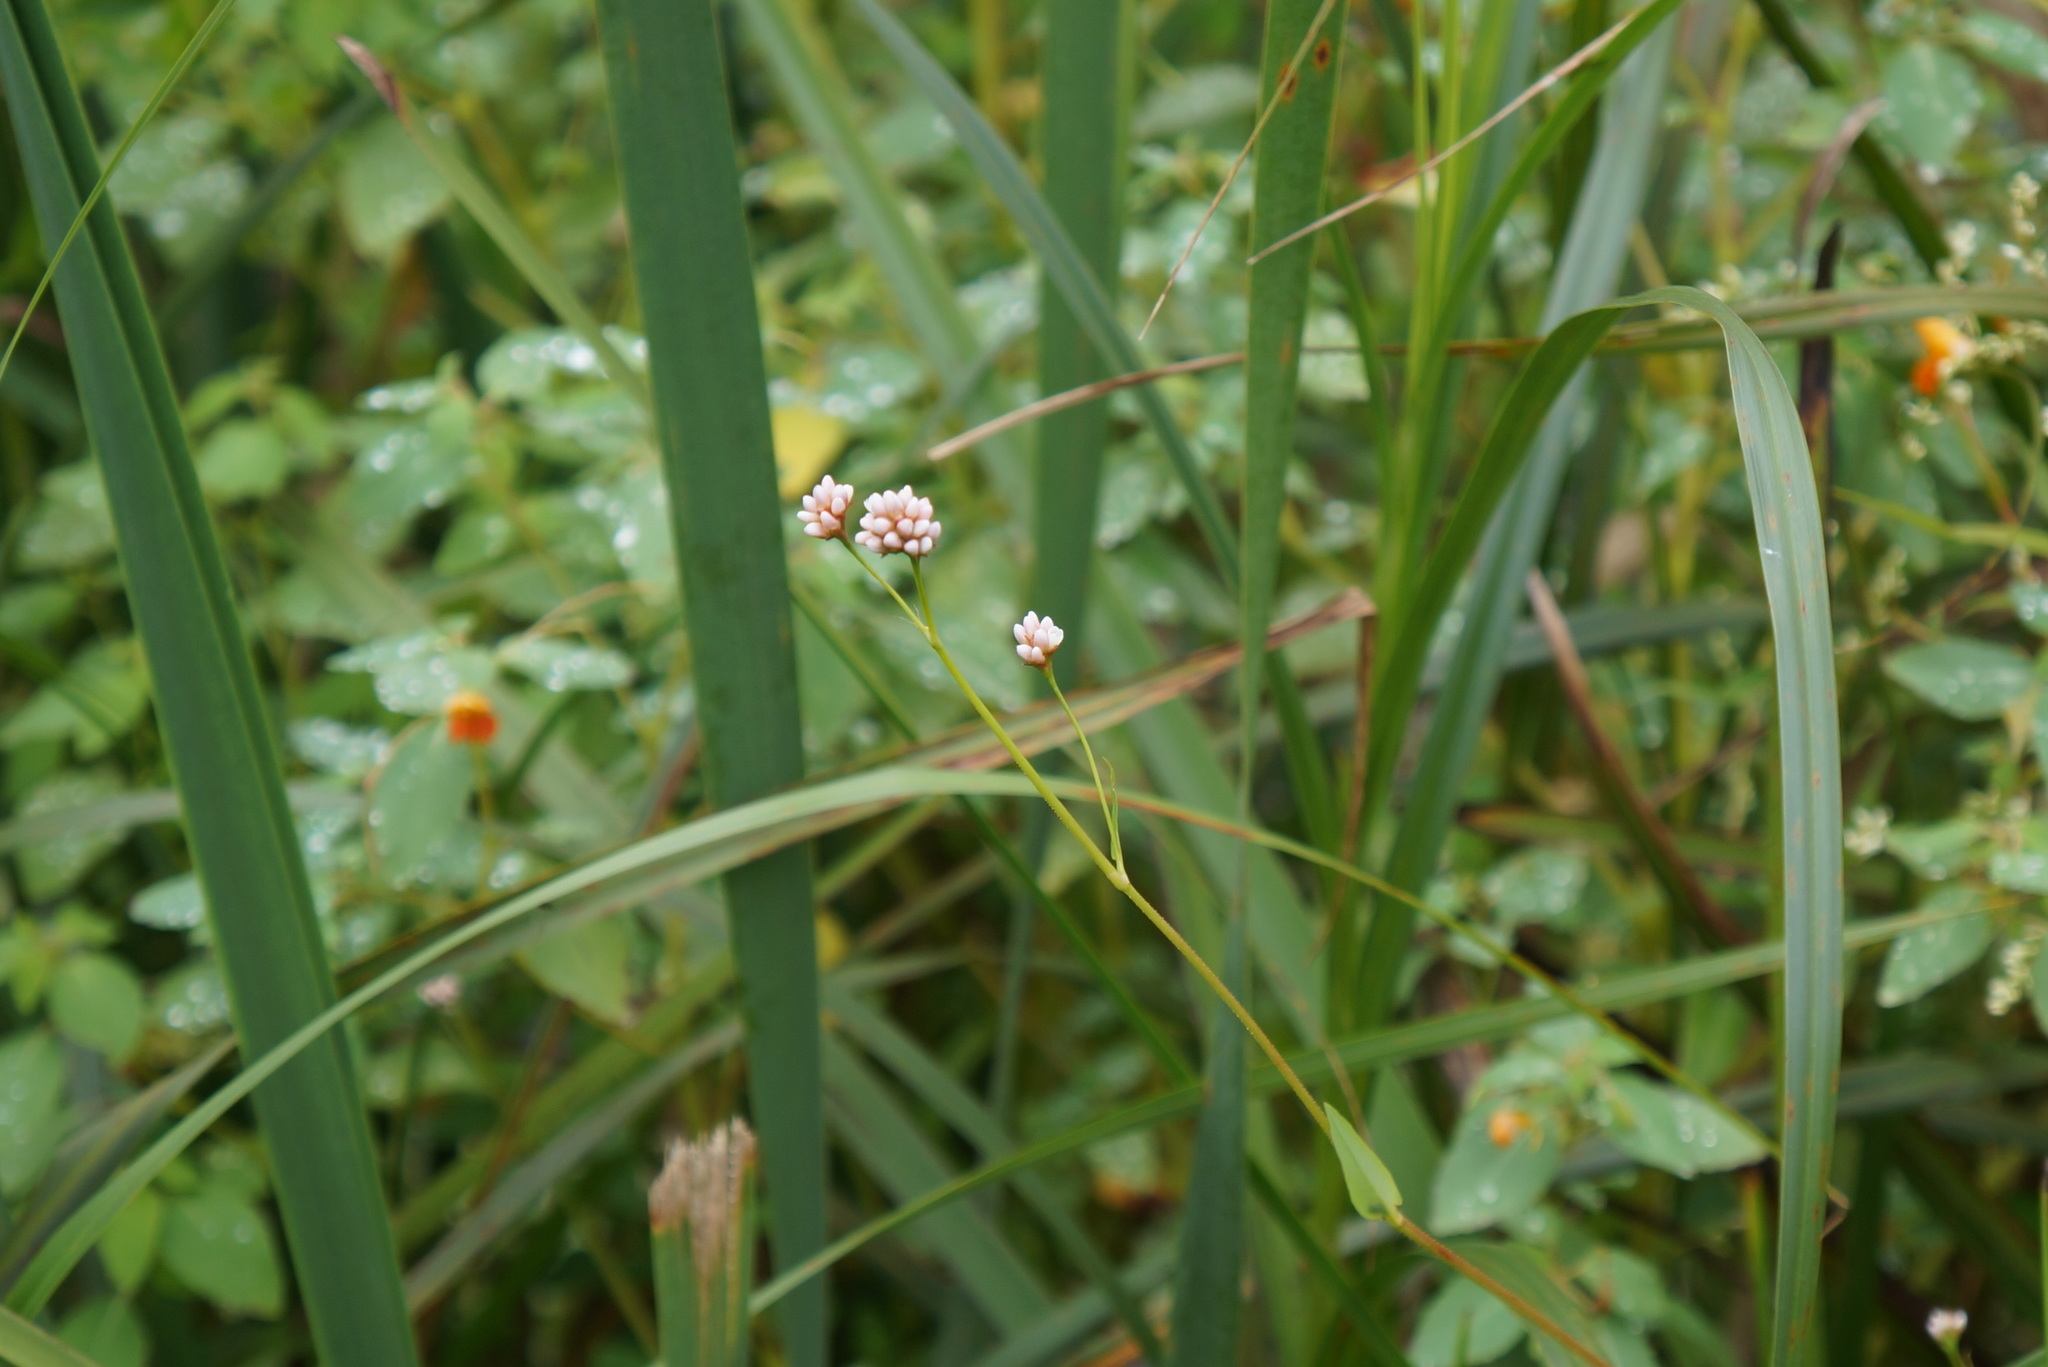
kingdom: Plantae
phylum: Tracheophyta
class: Magnoliopsida
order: Caryophyllales
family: Polygonaceae
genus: Persicaria
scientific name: Persicaria sagittata
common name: American tearthumb
